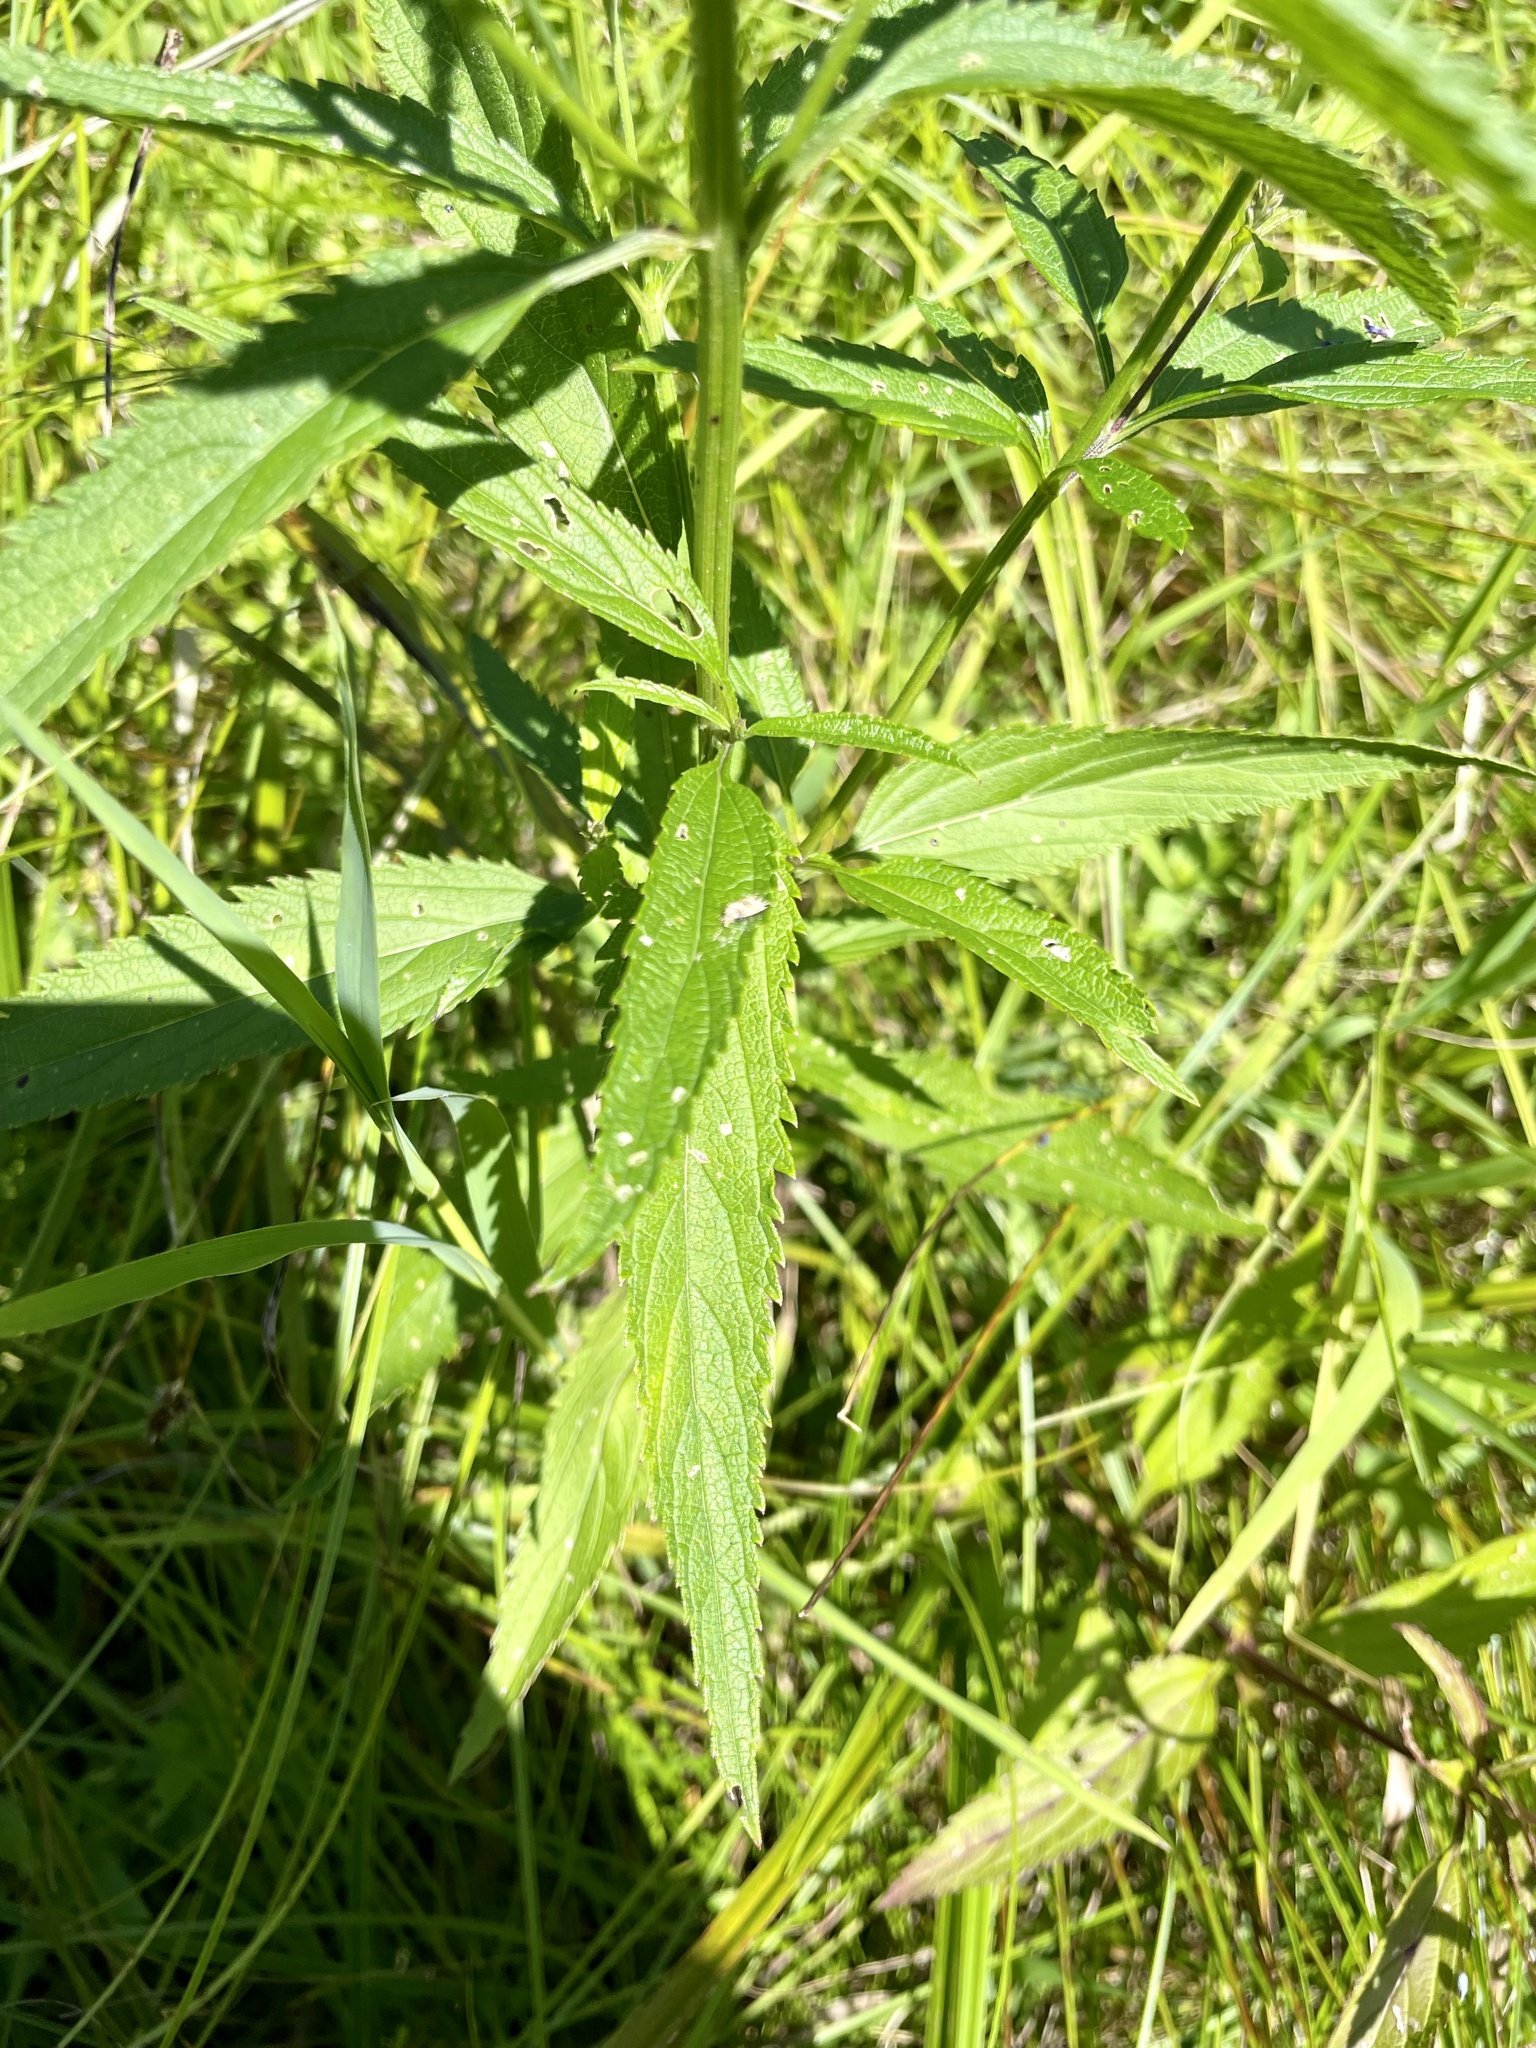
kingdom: Plantae
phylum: Tracheophyta
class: Magnoliopsida
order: Lamiales
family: Verbenaceae
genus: Verbena
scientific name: Verbena hastata
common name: American blue vervain
